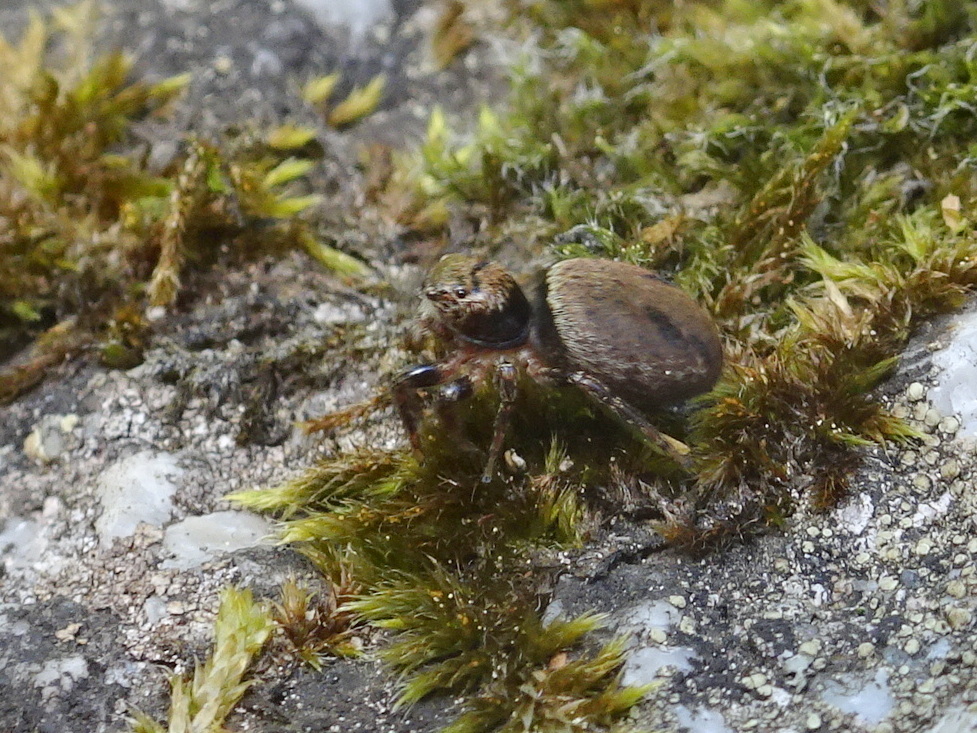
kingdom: Animalia
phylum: Arthropoda
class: Arachnida
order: Araneae
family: Salticidae
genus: Evarcha
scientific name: Evarcha falcata
